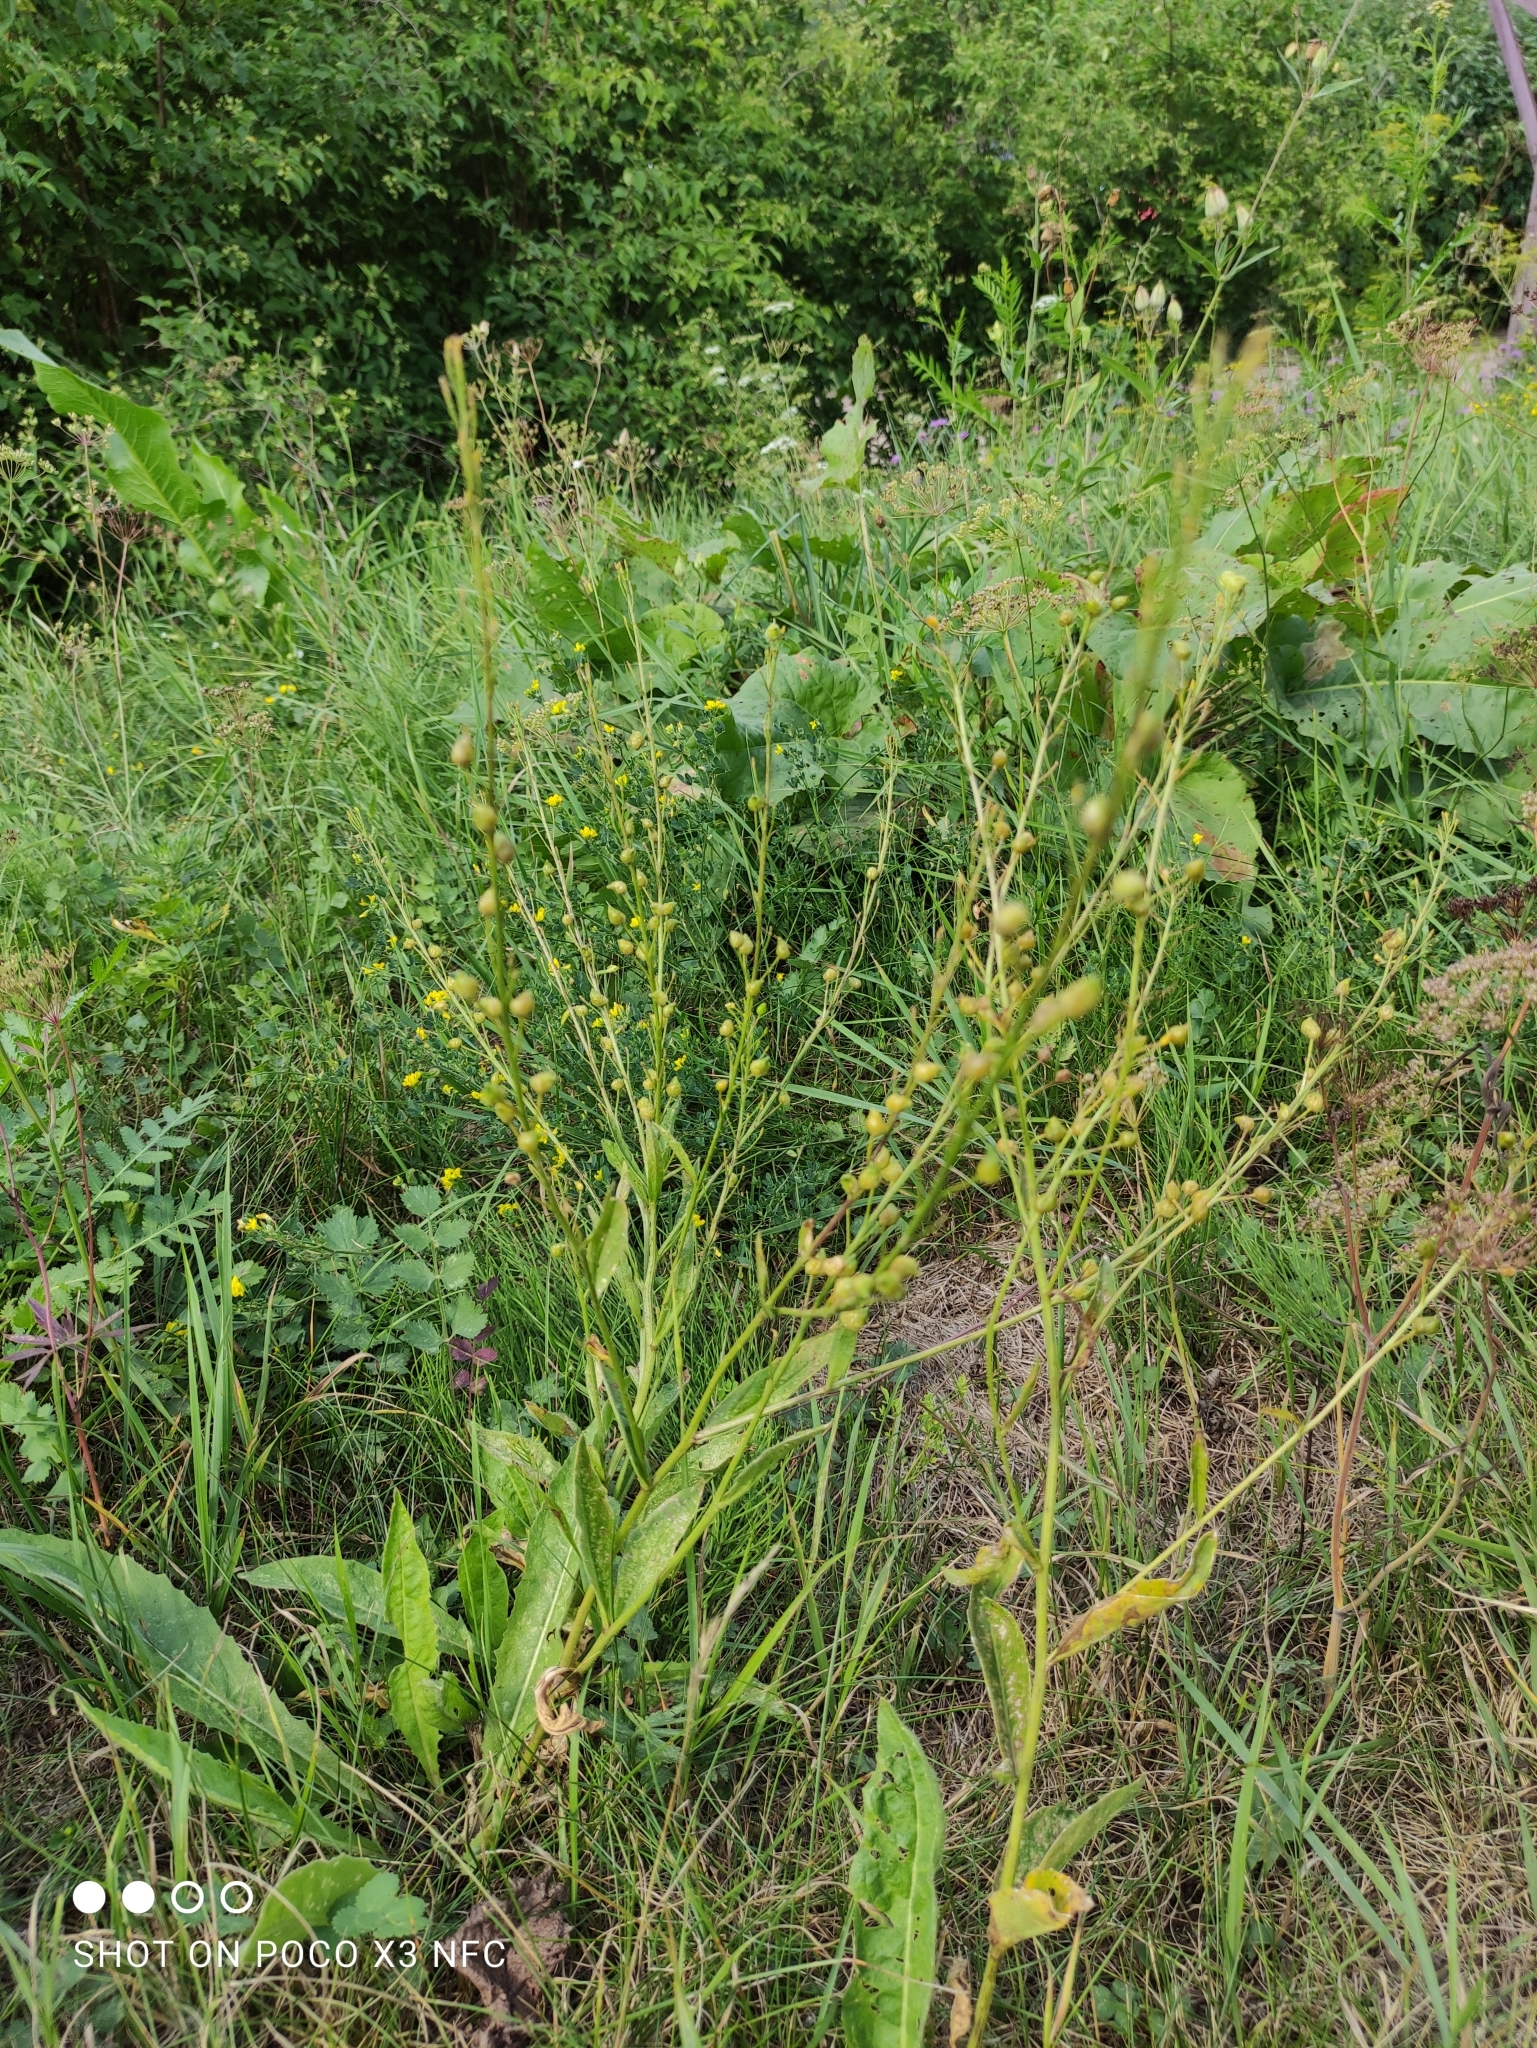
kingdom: Plantae
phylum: Tracheophyta
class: Magnoliopsida
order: Brassicales
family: Brassicaceae
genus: Bunias
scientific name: Bunias orientalis
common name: Warty-cabbage
